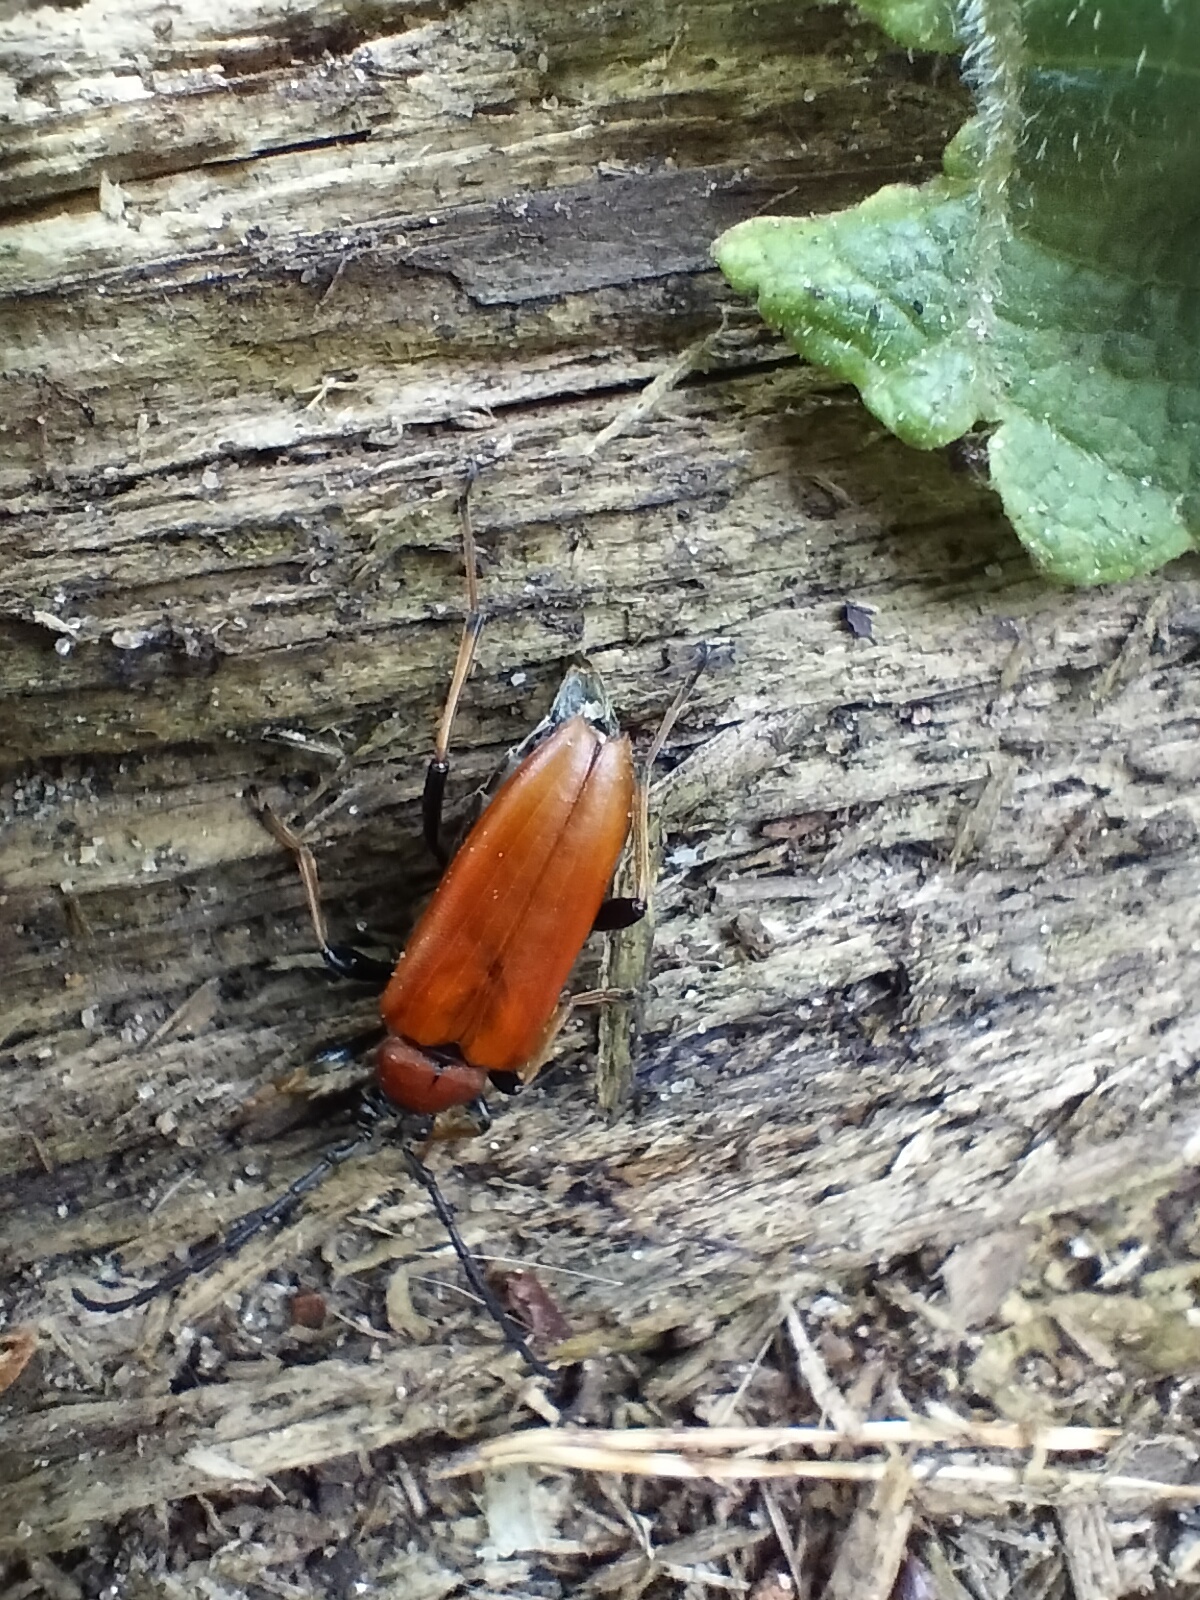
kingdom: Animalia
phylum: Arthropoda
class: Insecta
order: Coleoptera
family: Cerambycidae
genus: Stictoleptura
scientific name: Stictoleptura rubra
